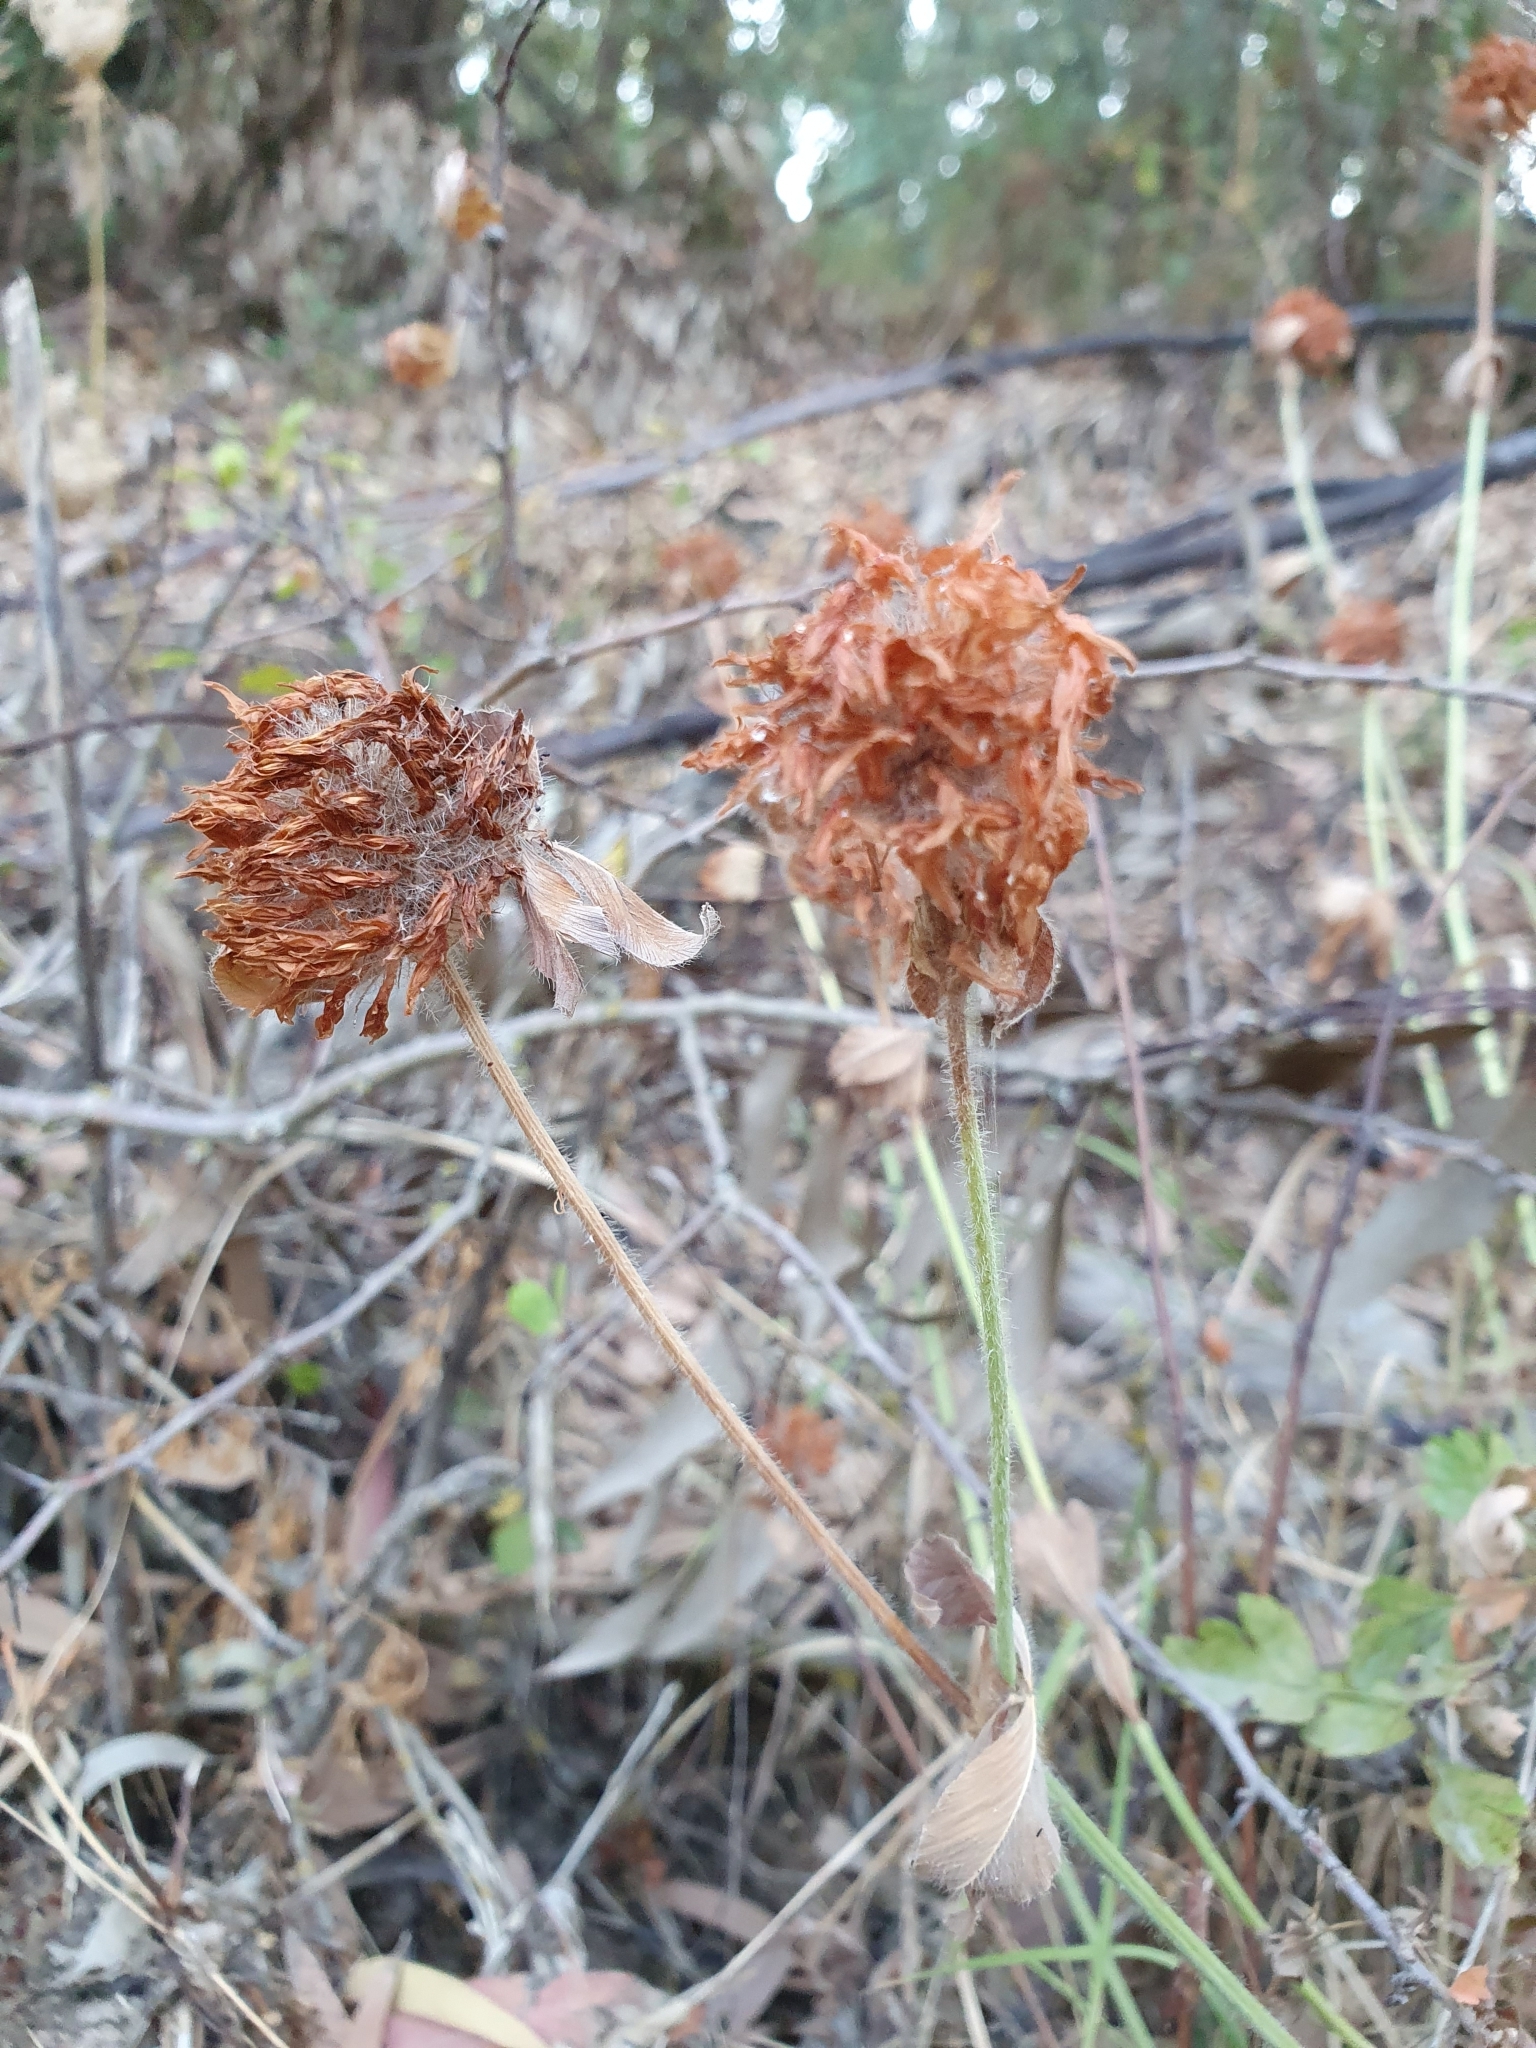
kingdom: Plantae
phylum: Tracheophyta
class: Magnoliopsida
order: Fabales
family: Fabaceae
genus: Trifolium
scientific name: Trifolium pratense
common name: Red clover
